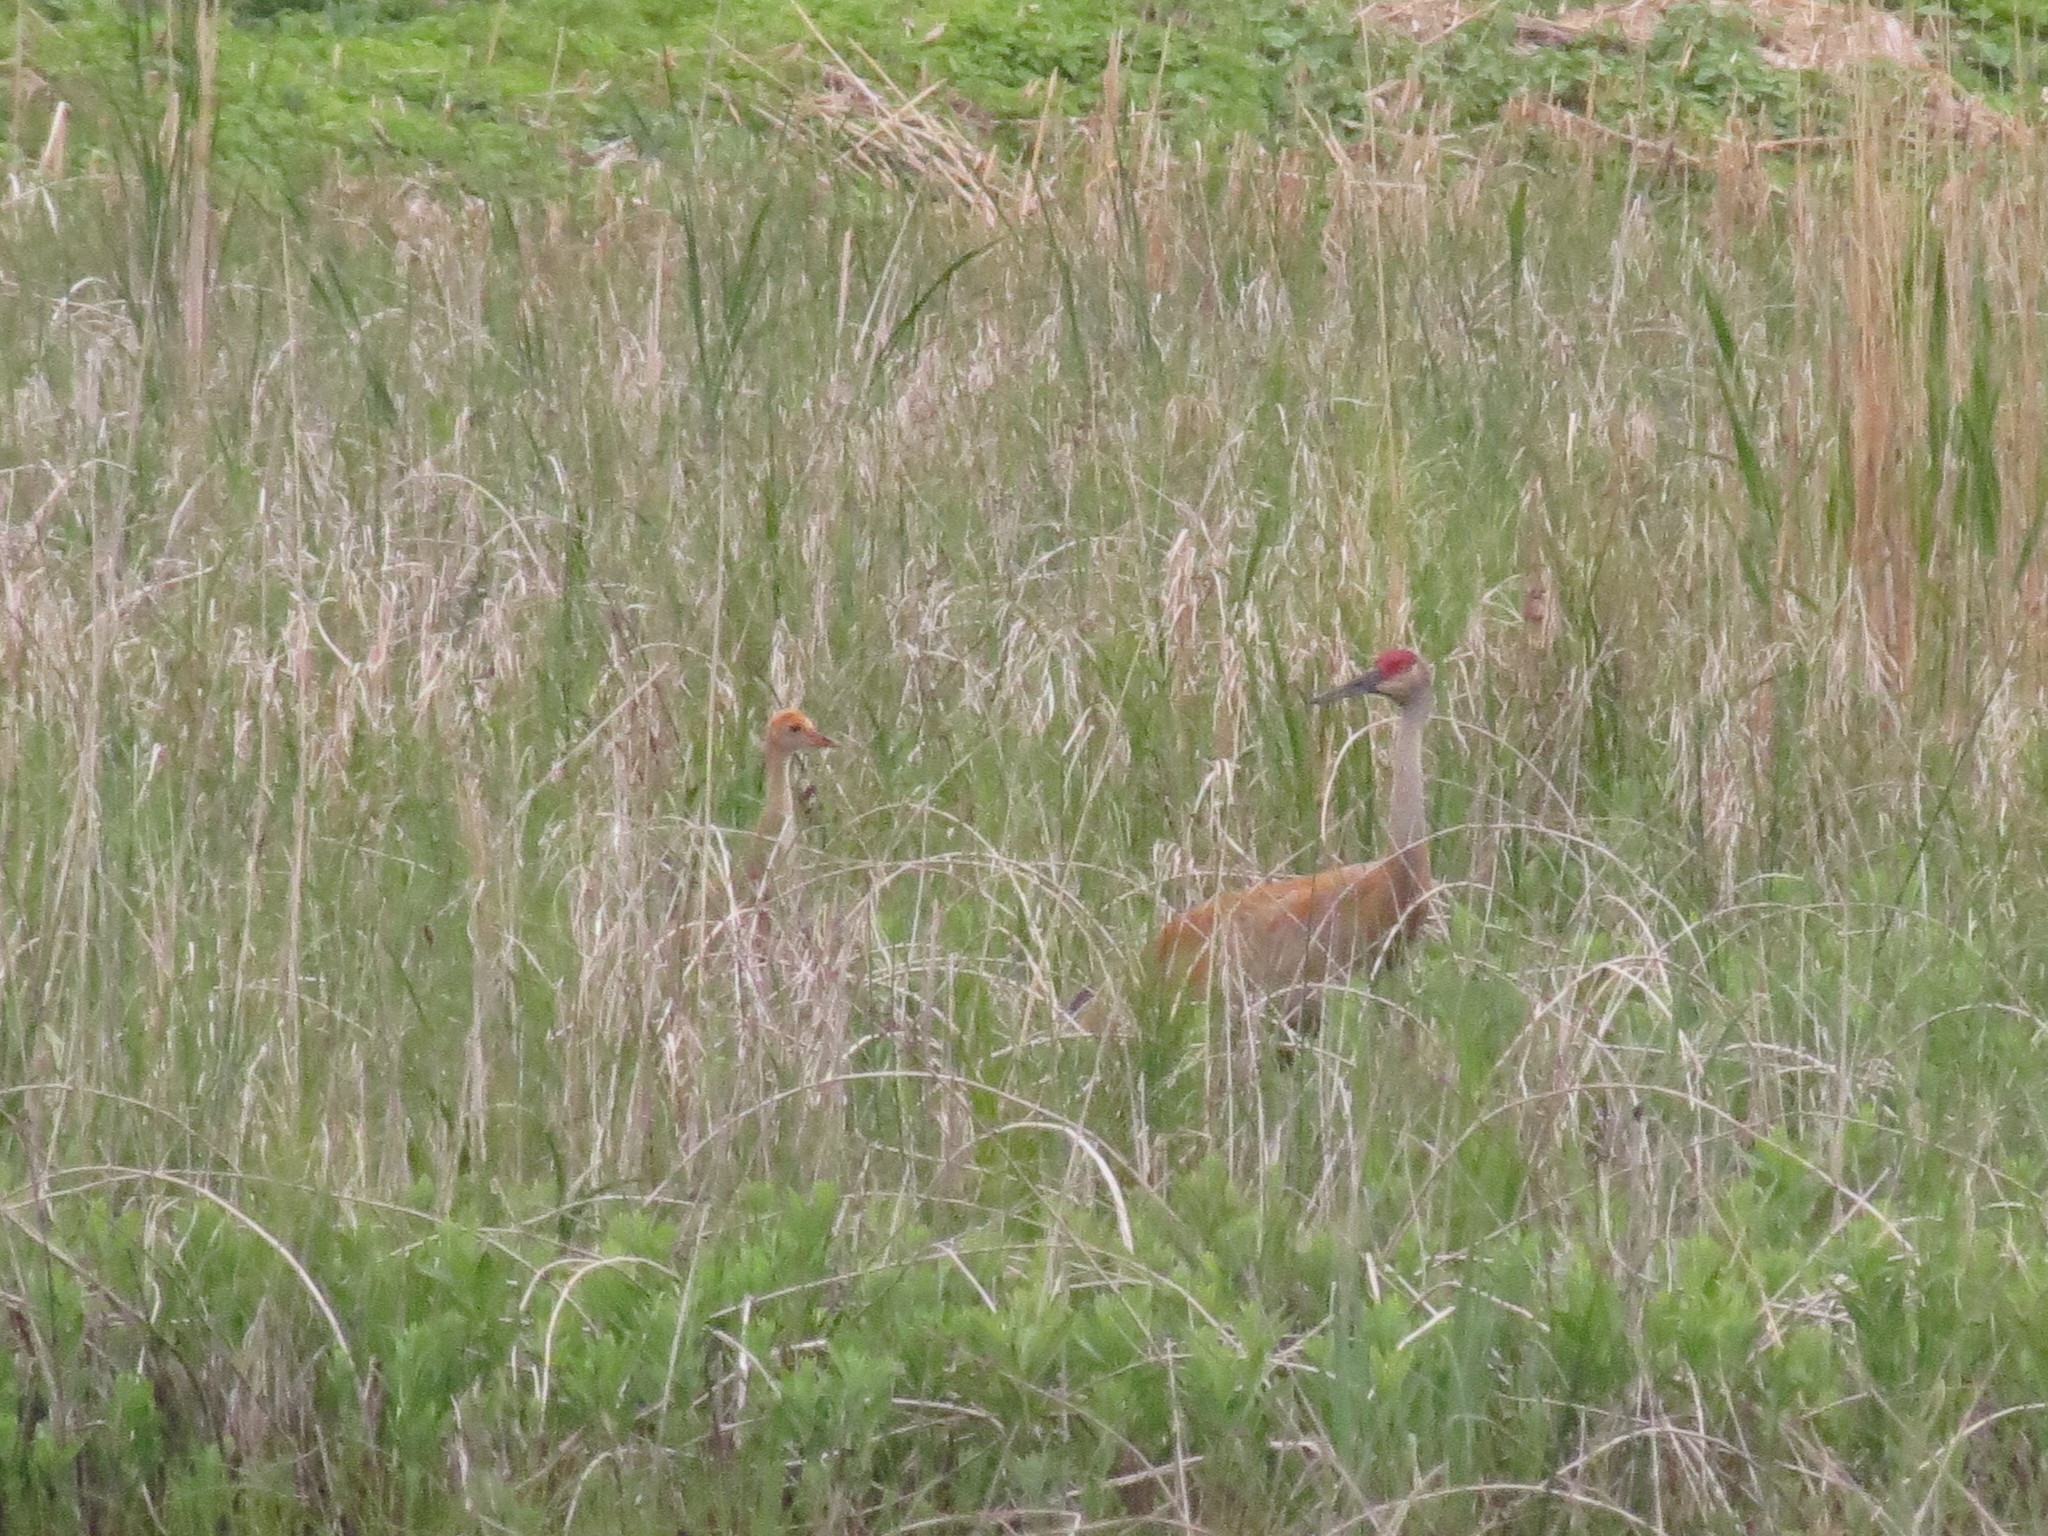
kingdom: Animalia
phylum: Chordata
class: Aves
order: Gruiformes
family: Gruidae
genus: Grus
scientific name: Grus canadensis
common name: Sandhill crane
